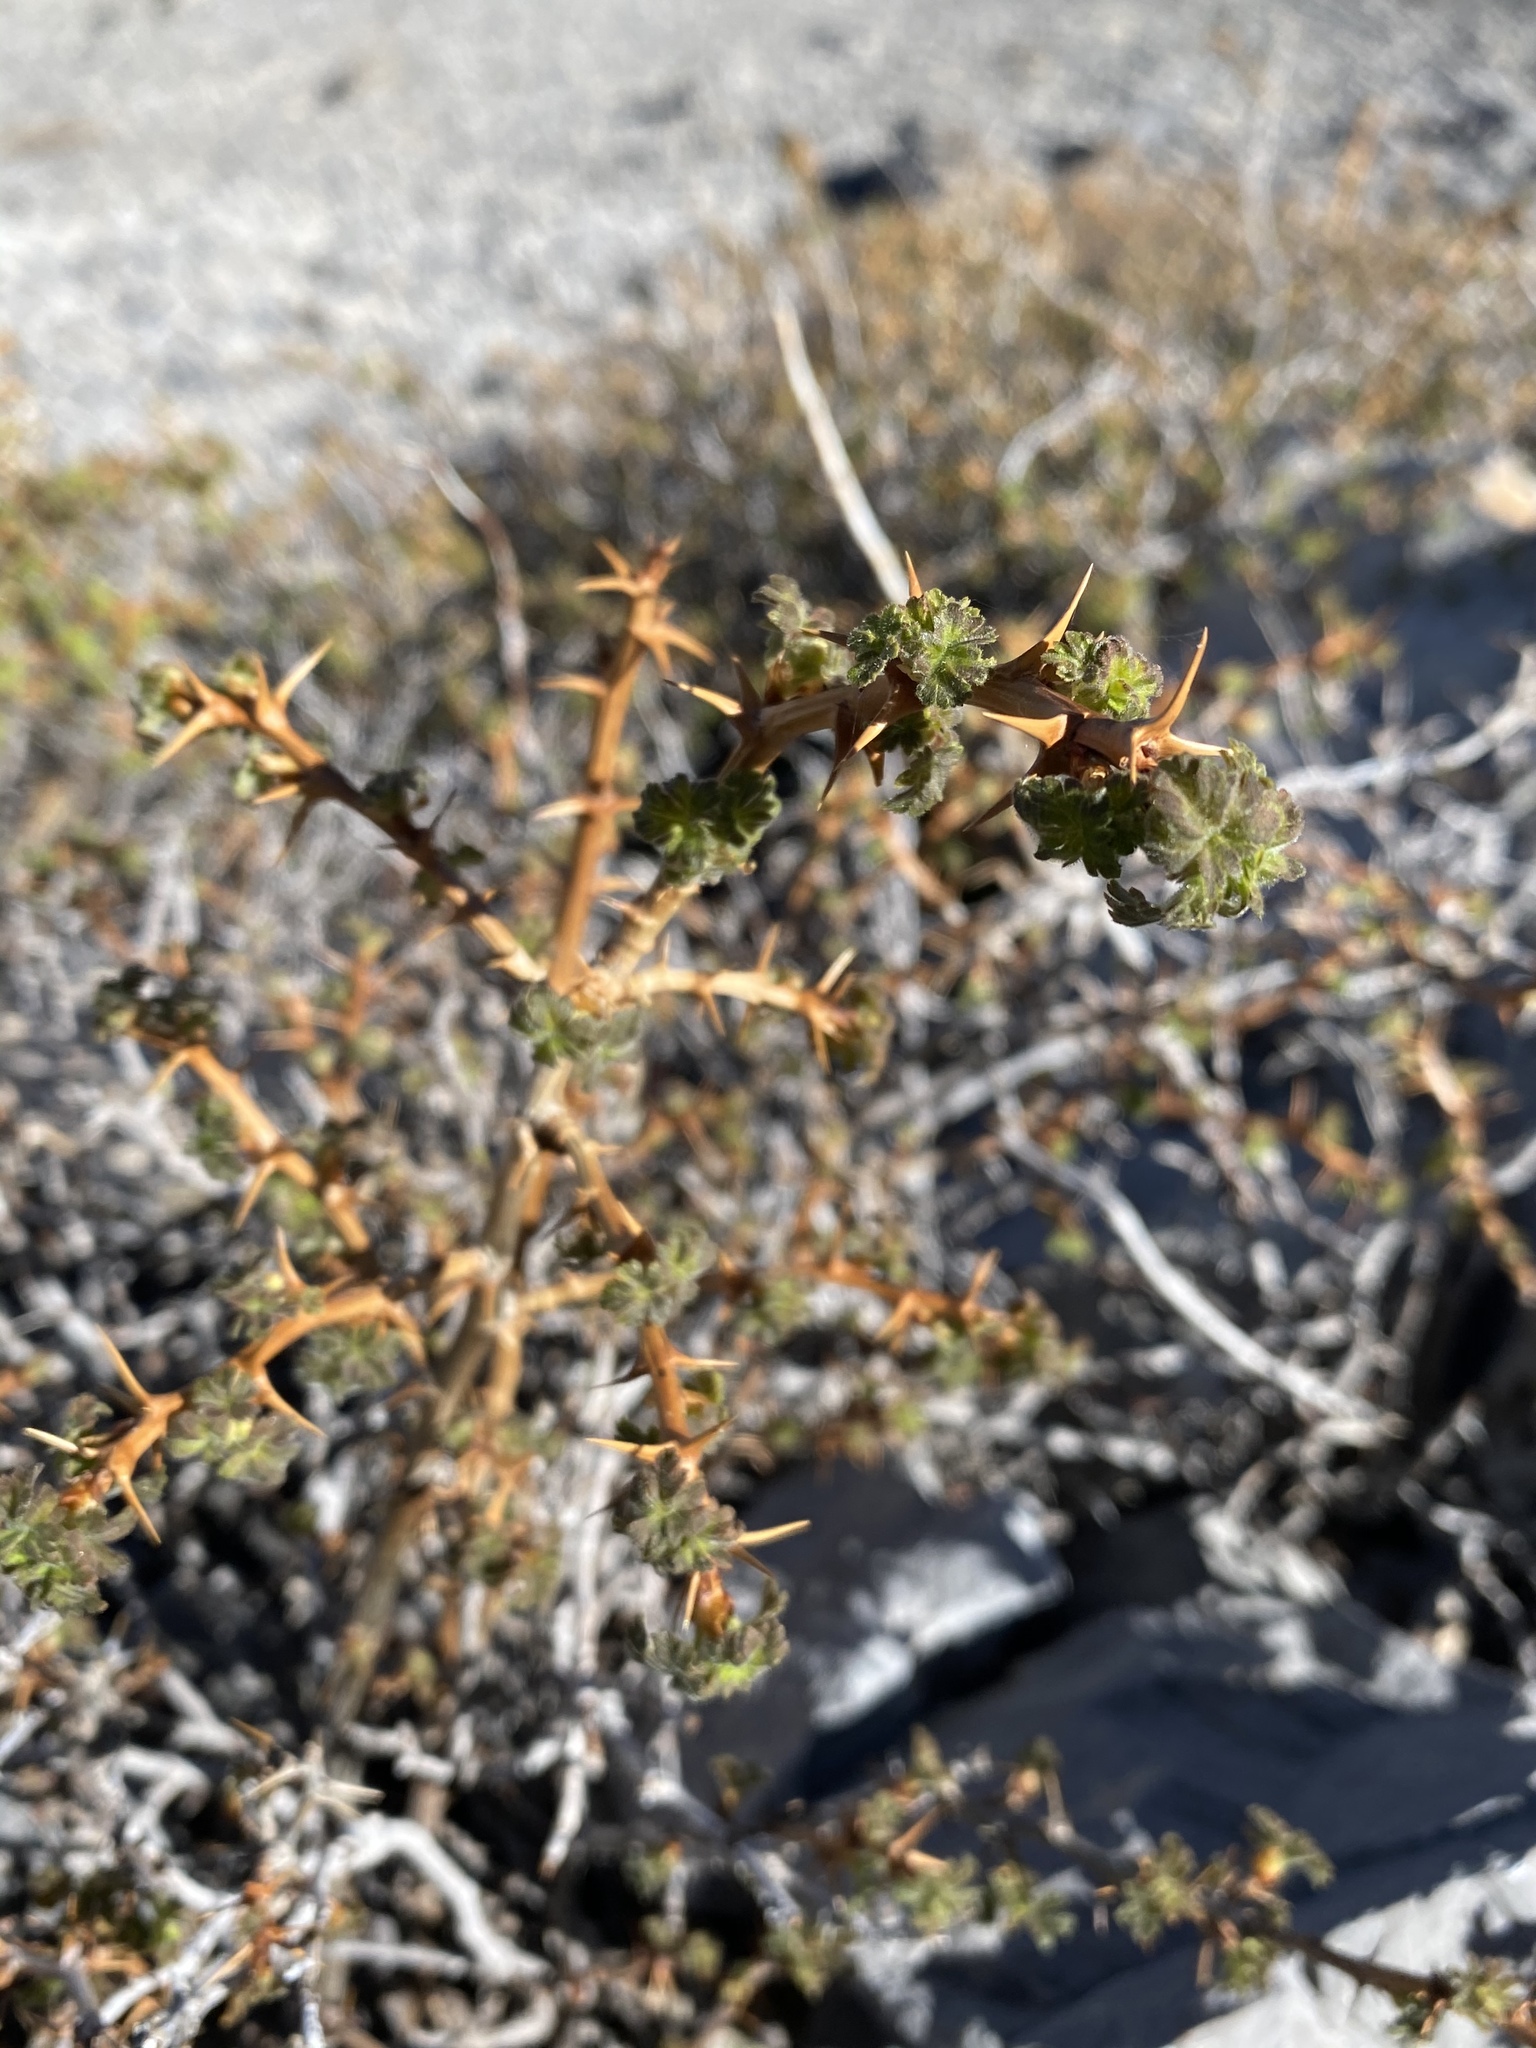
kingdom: Plantae
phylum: Tracheophyta
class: Magnoliopsida
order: Saxifragales
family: Grossulariaceae
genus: Ribes
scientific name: Ribes montigenum
